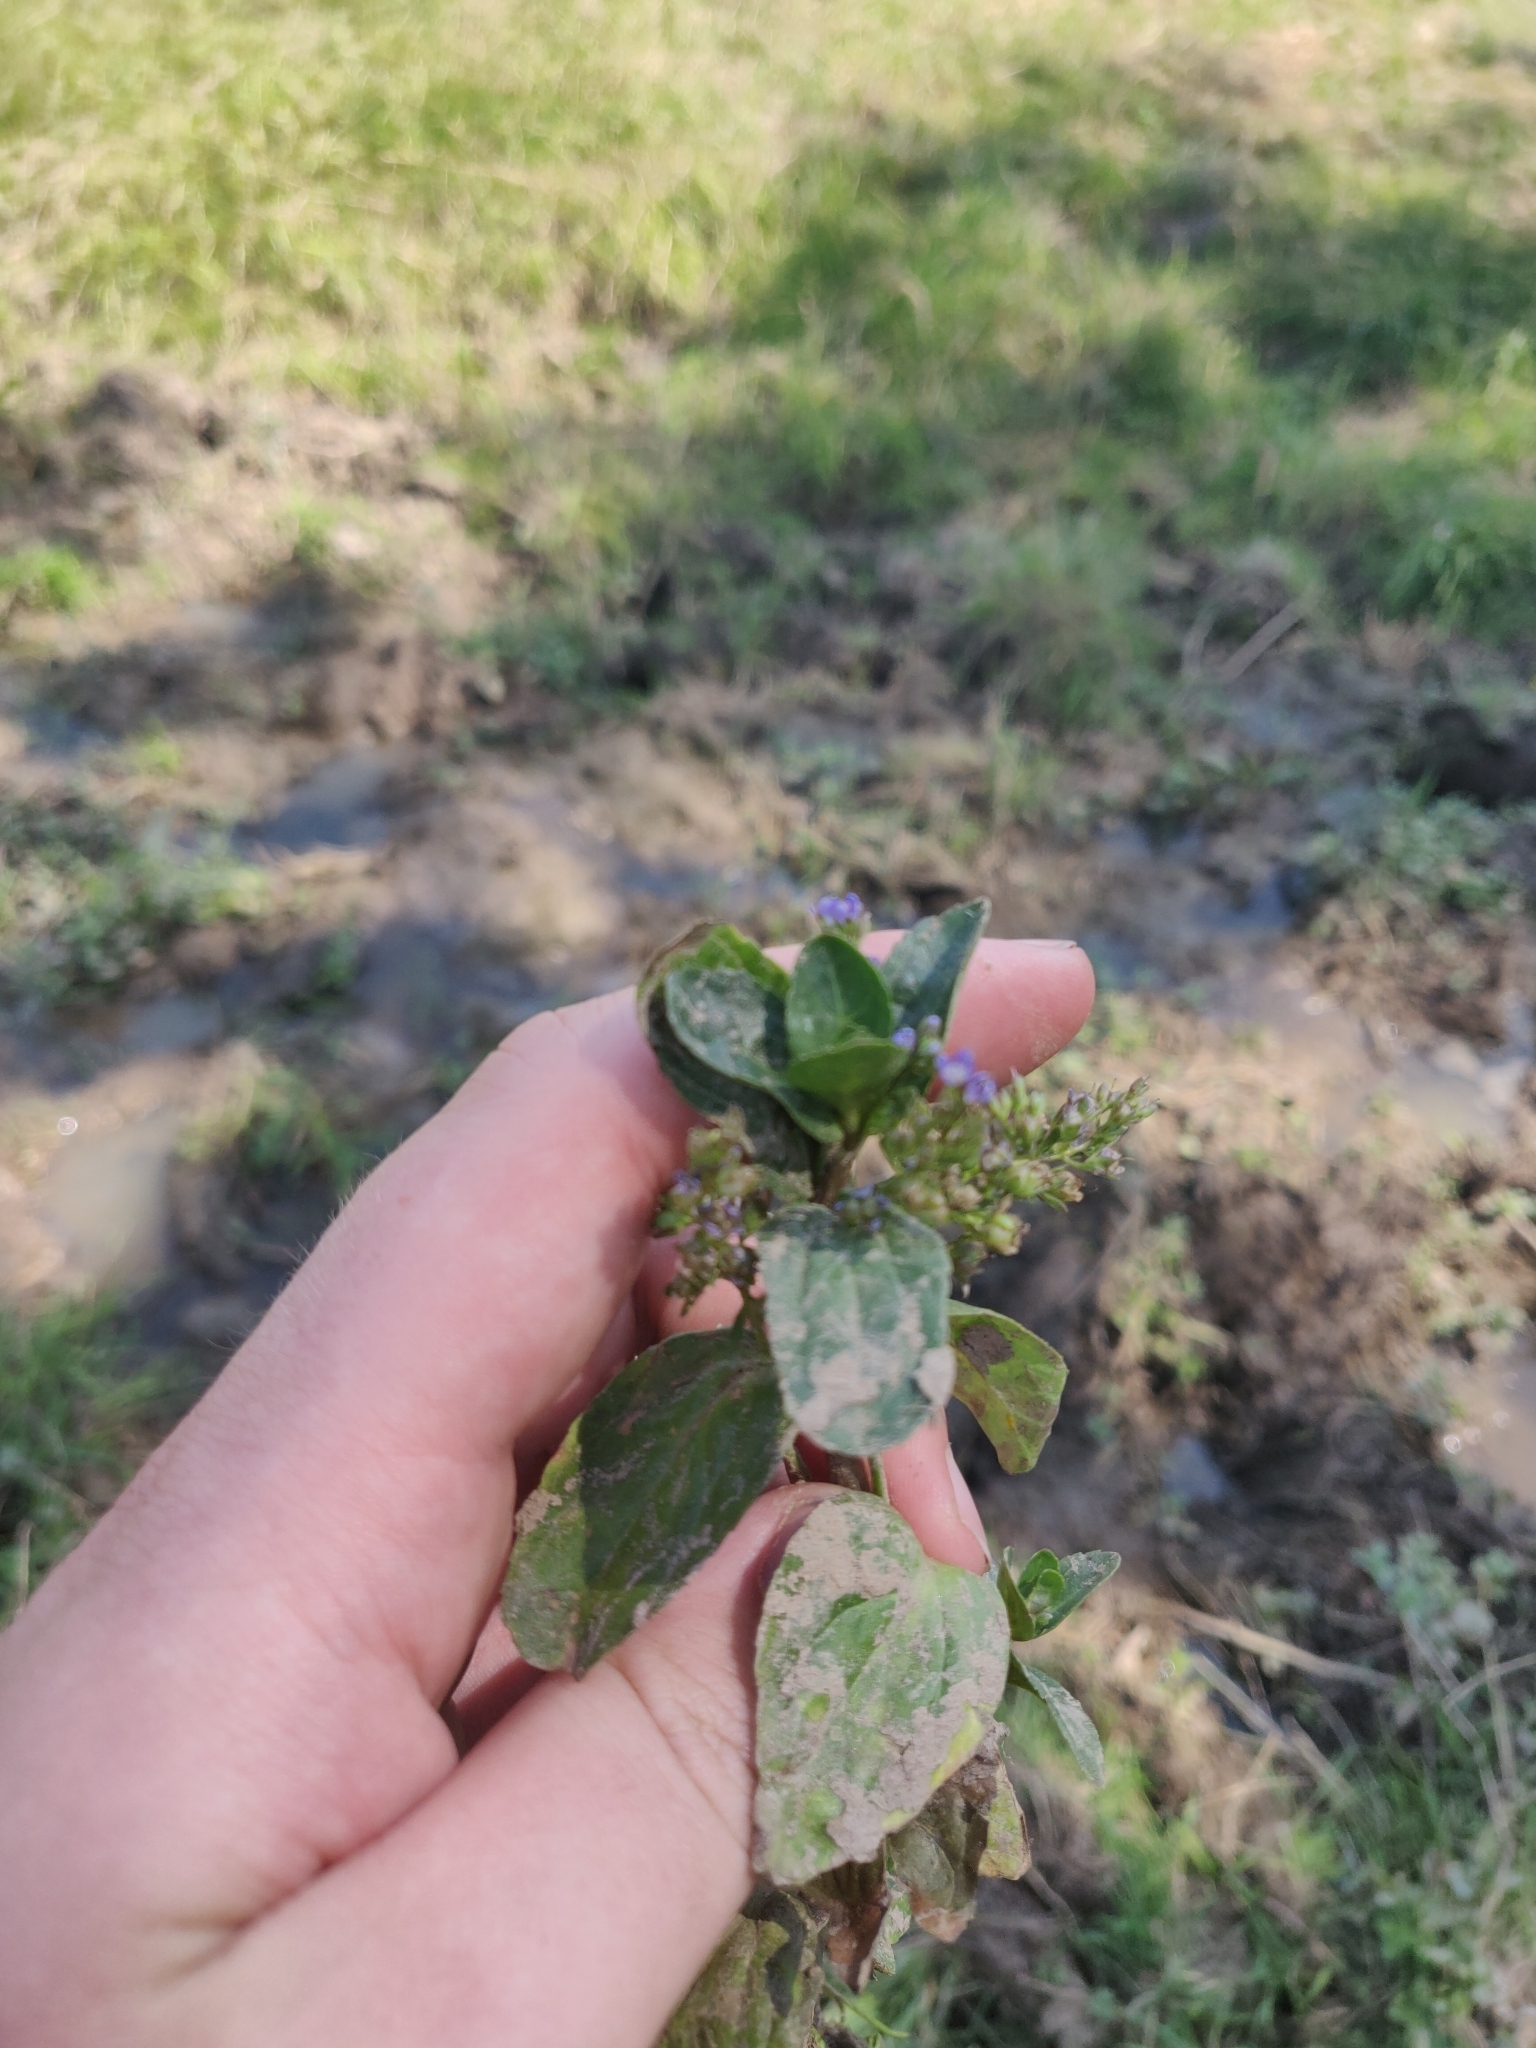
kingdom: Plantae
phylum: Tracheophyta
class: Magnoliopsida
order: Lamiales
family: Plantaginaceae
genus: Veronica
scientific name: Veronica beccabunga
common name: Brooklime
